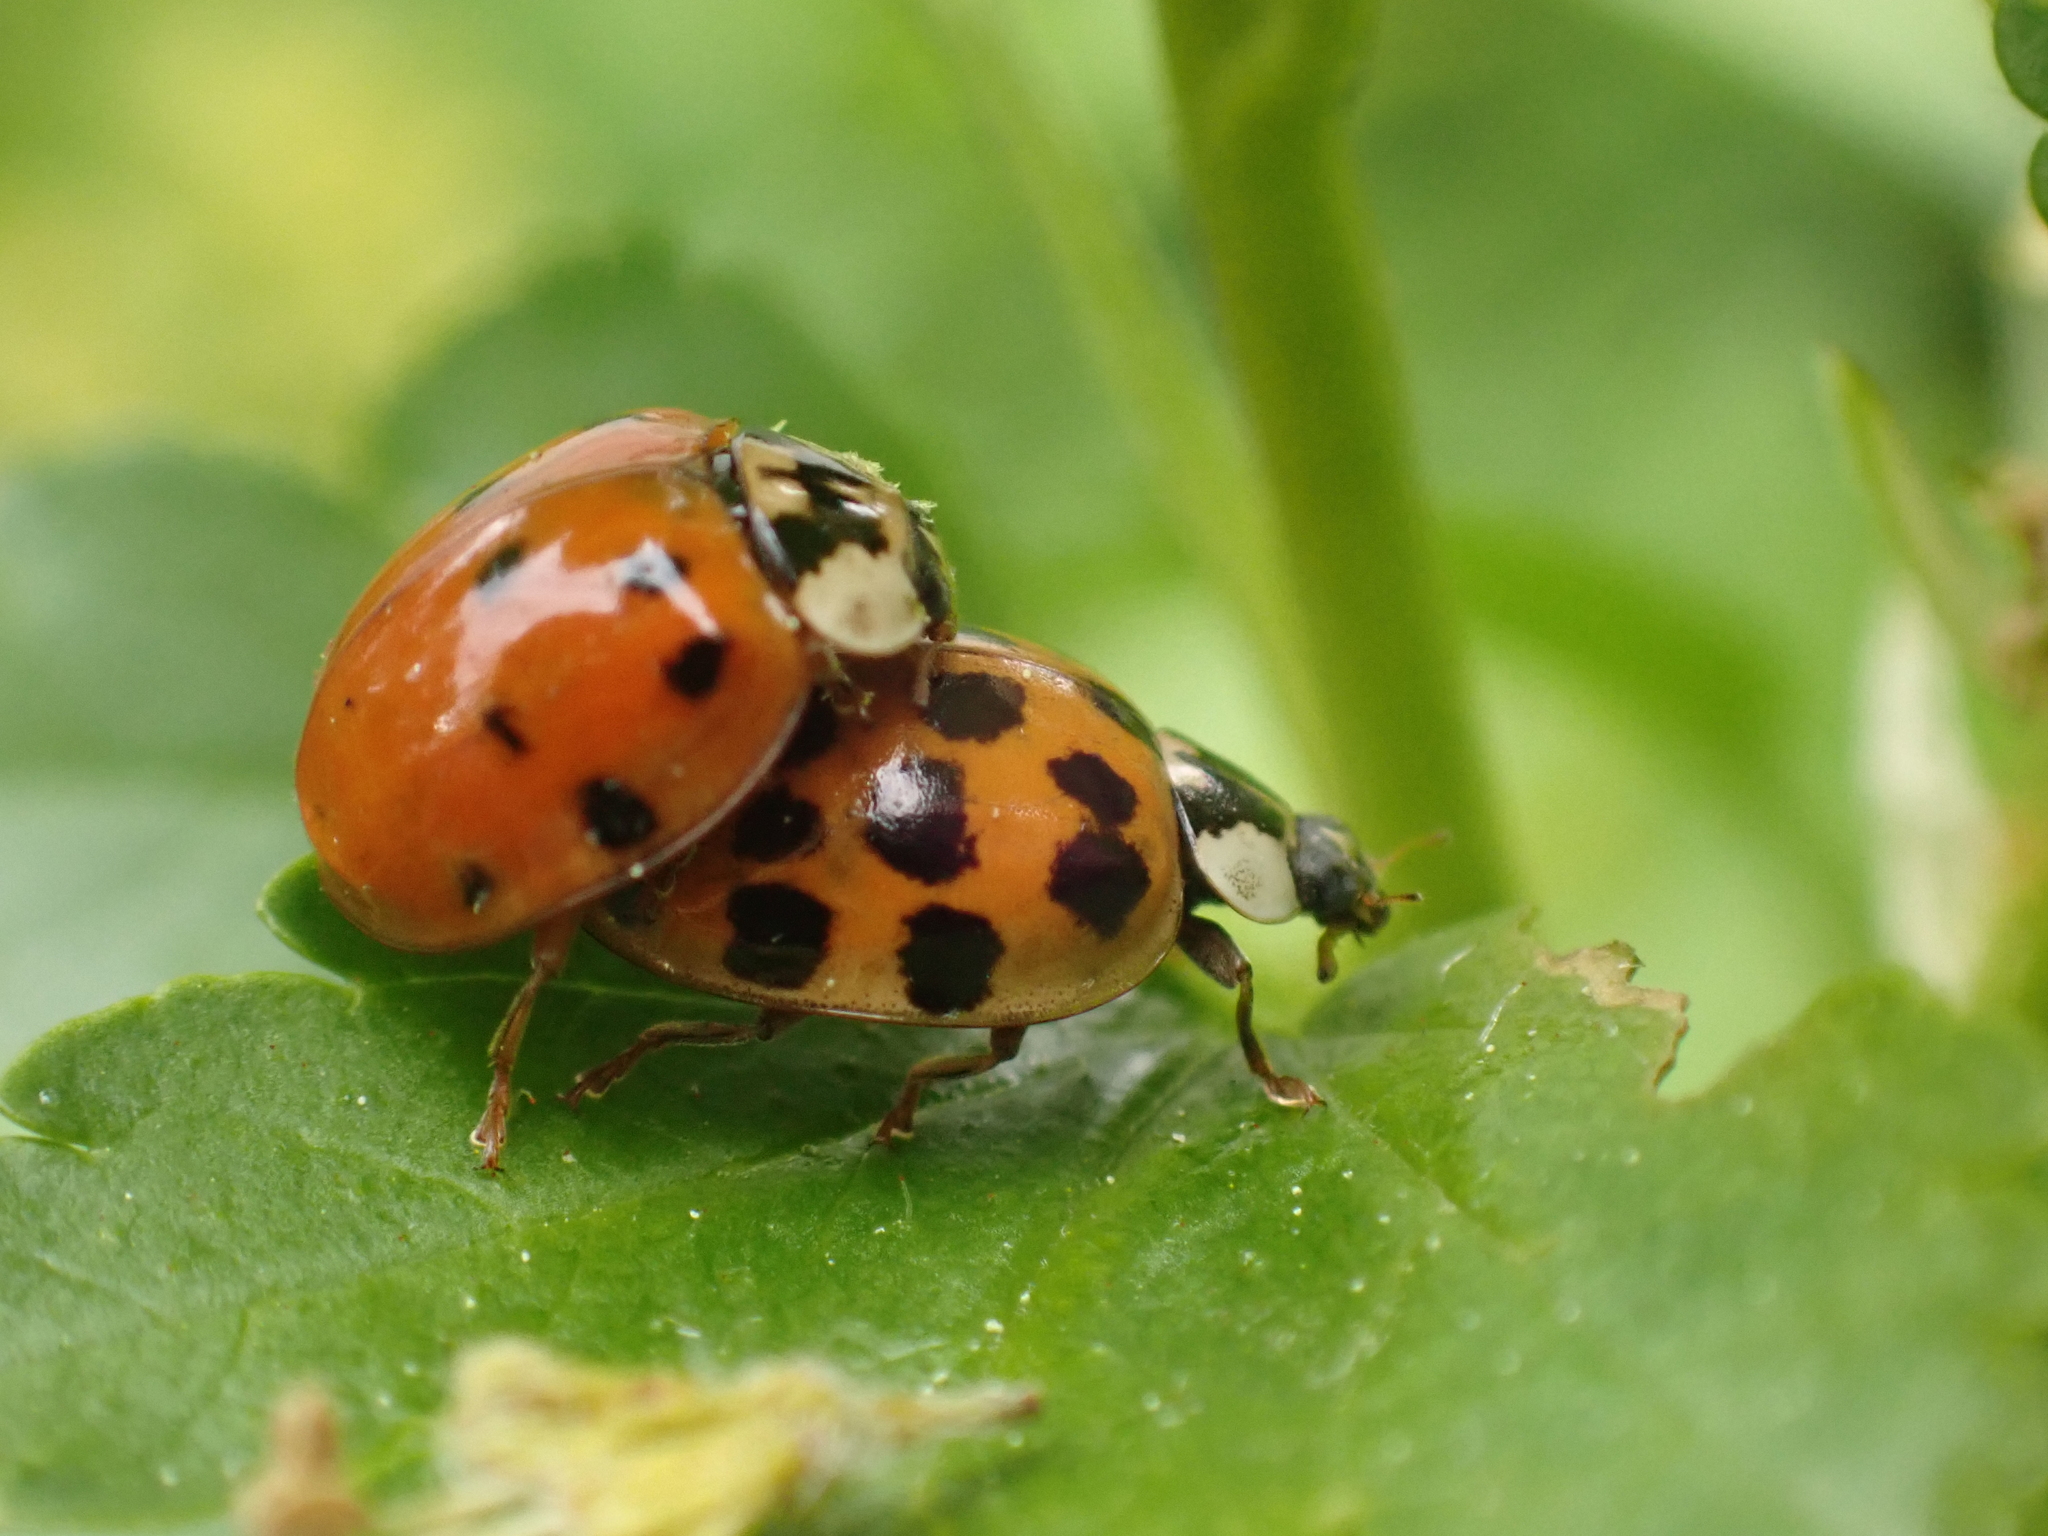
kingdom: Animalia
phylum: Arthropoda
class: Insecta
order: Coleoptera
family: Coccinellidae
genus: Harmonia
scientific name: Harmonia axyridis
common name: Harlequin ladybird
